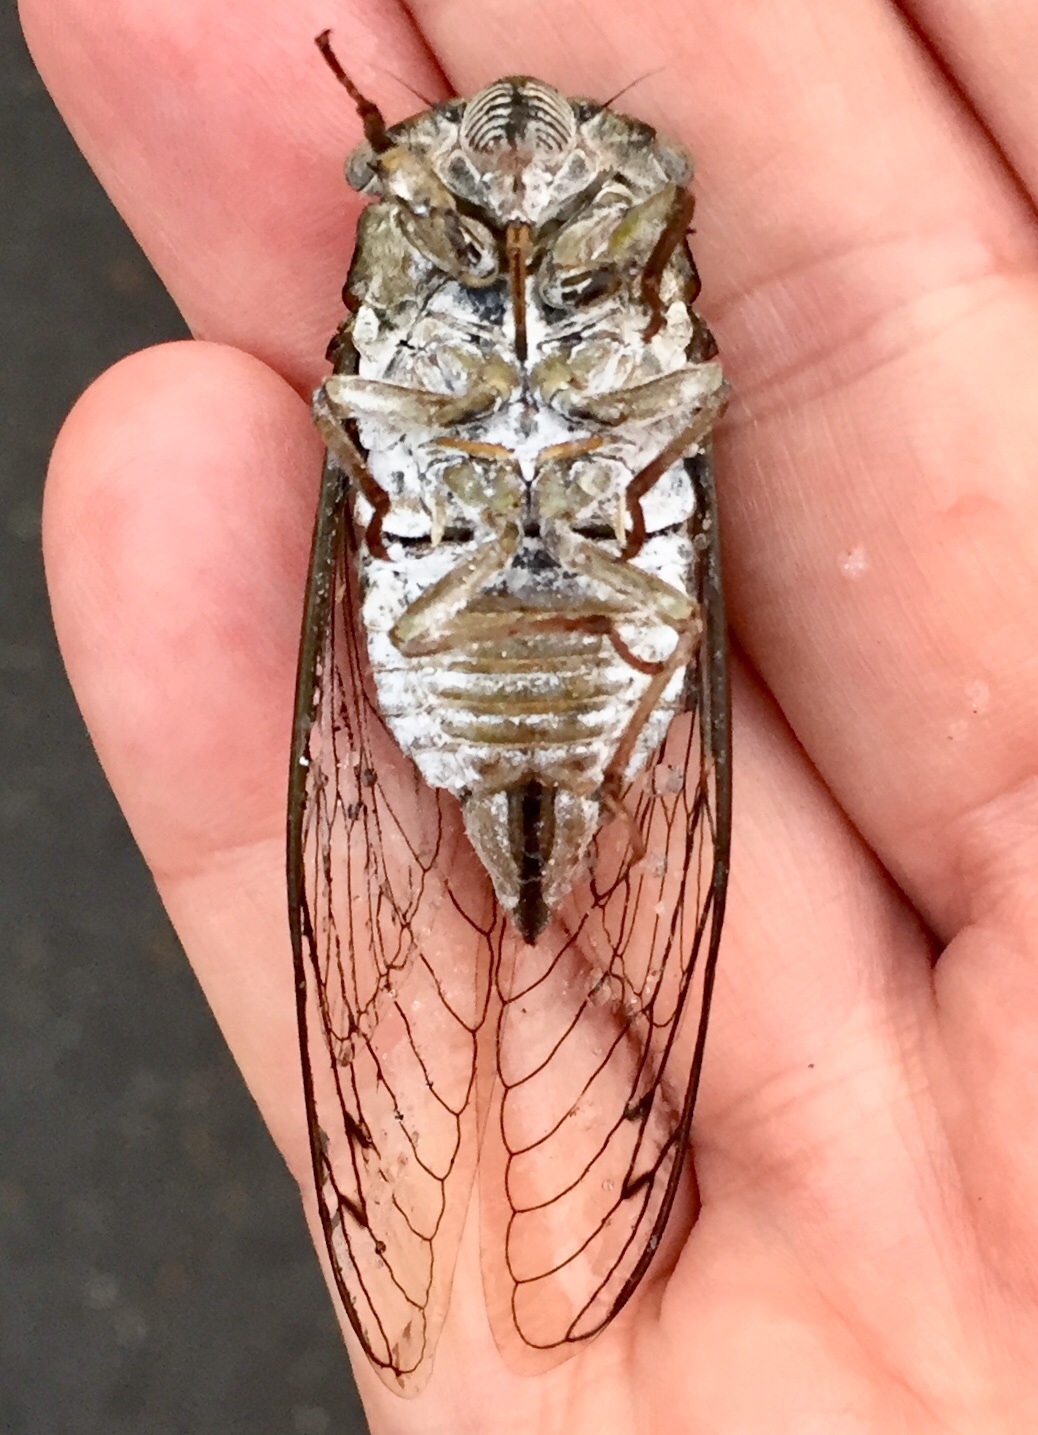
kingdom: Animalia
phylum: Arthropoda
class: Insecta
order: Hemiptera
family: Cicadidae
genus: Diceroprocta
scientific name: Diceroprocta grossa
